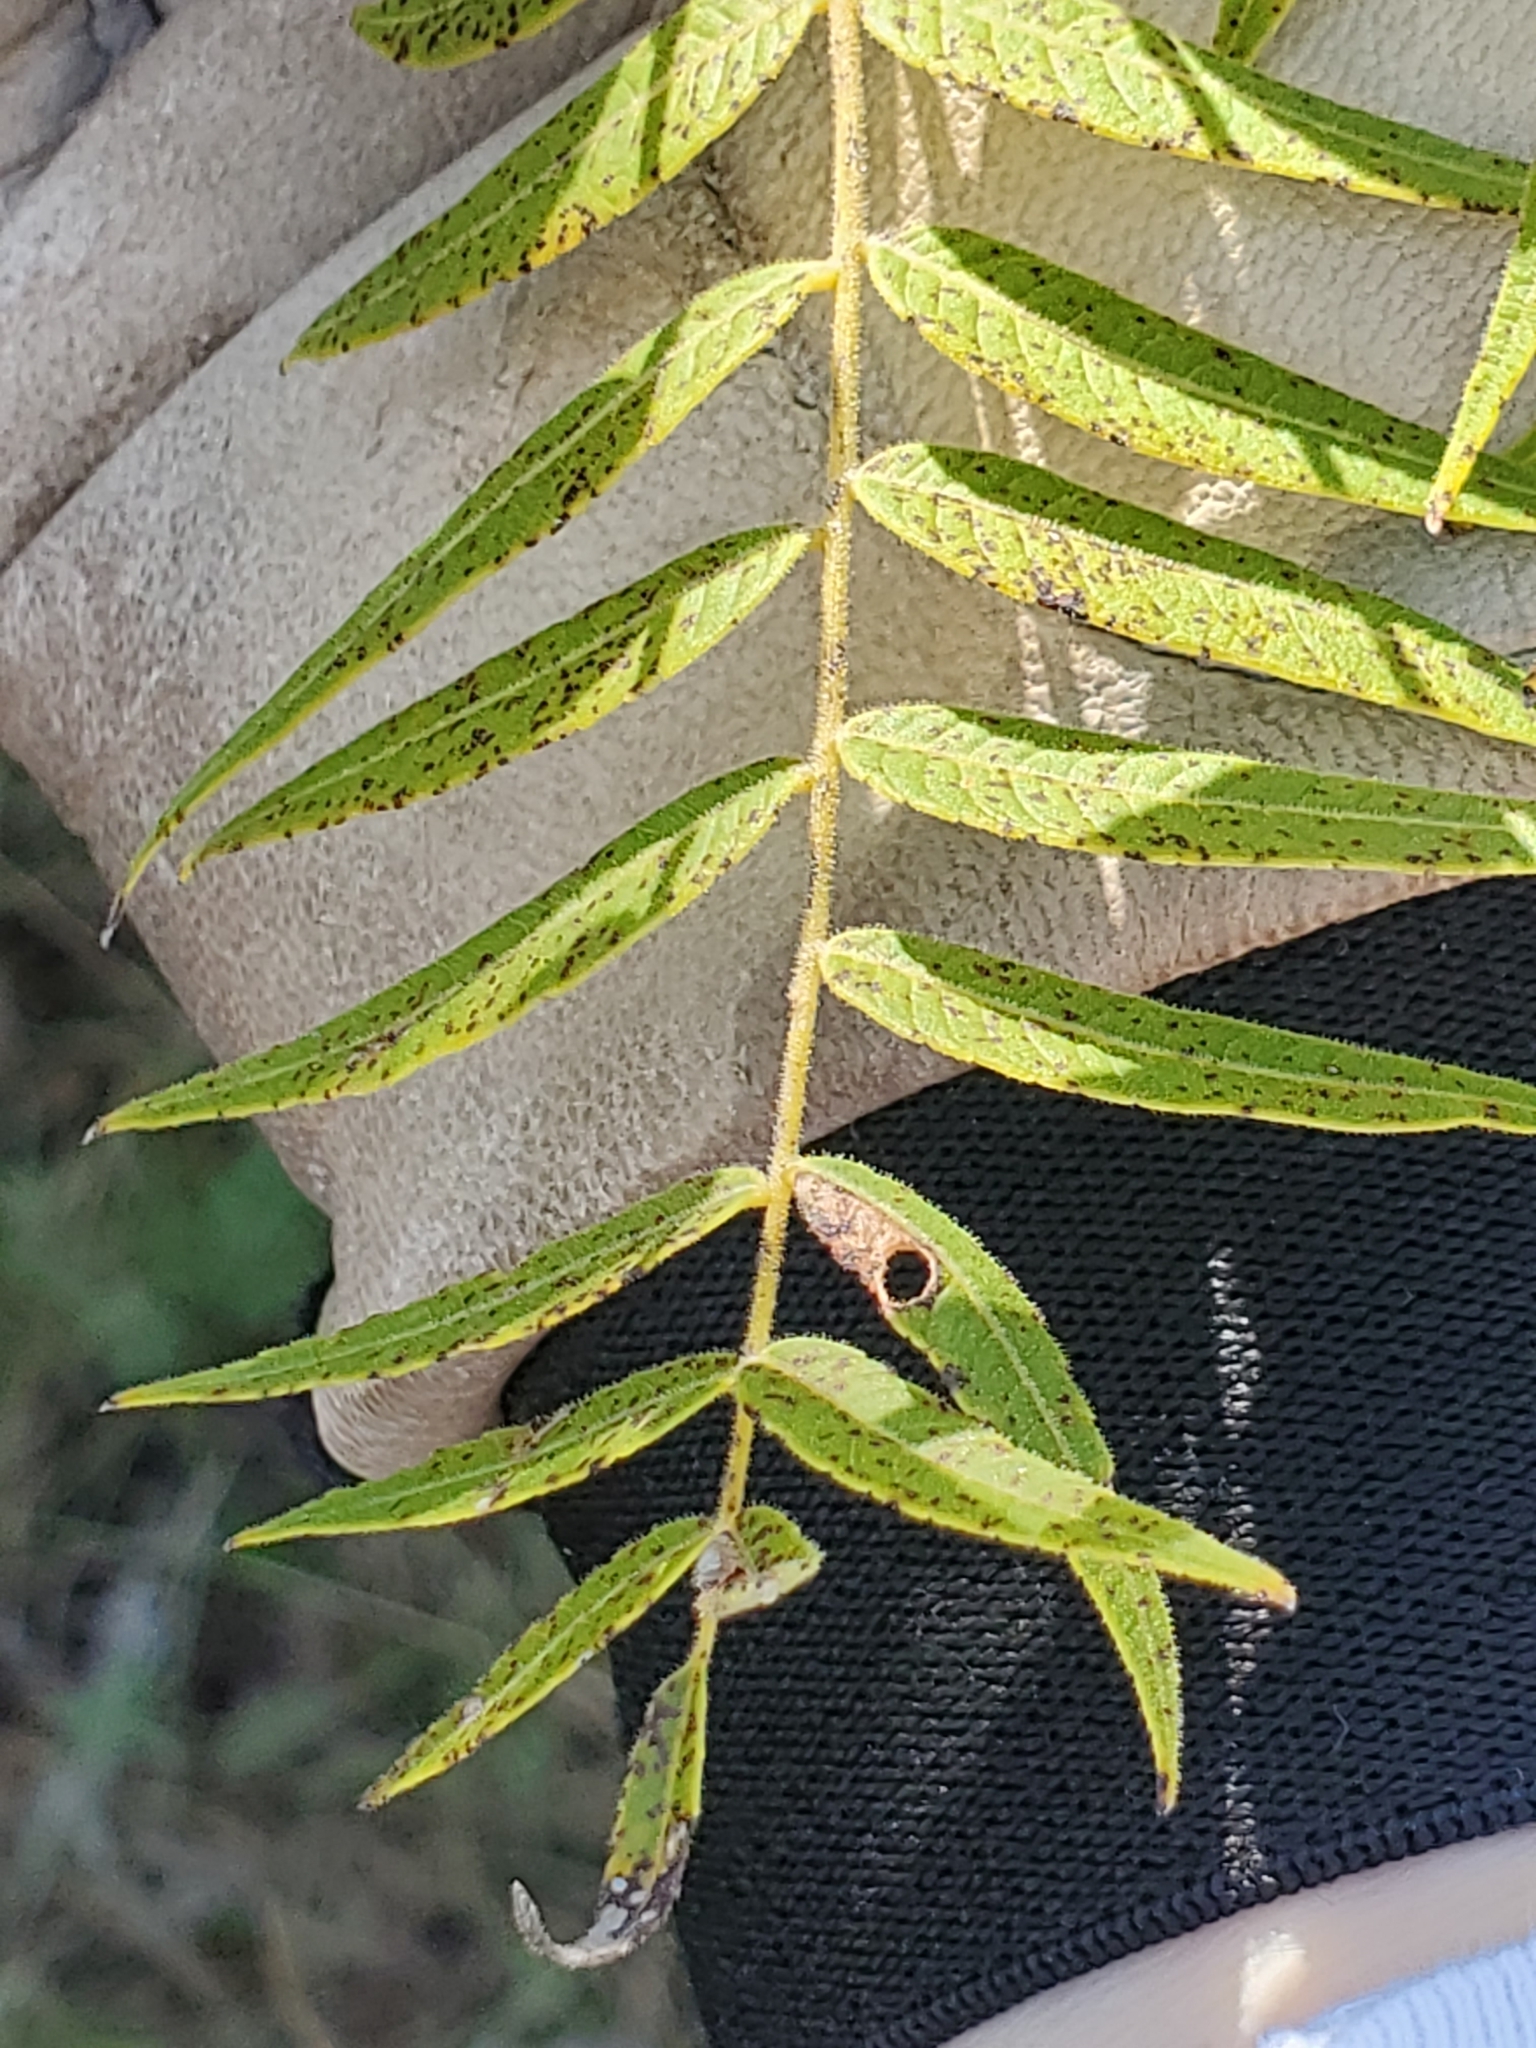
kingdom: Plantae
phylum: Tracheophyta
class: Magnoliopsida
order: Fagales
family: Juglandaceae
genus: Juglans
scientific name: Juglans microcarpa
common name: Texas walnut
